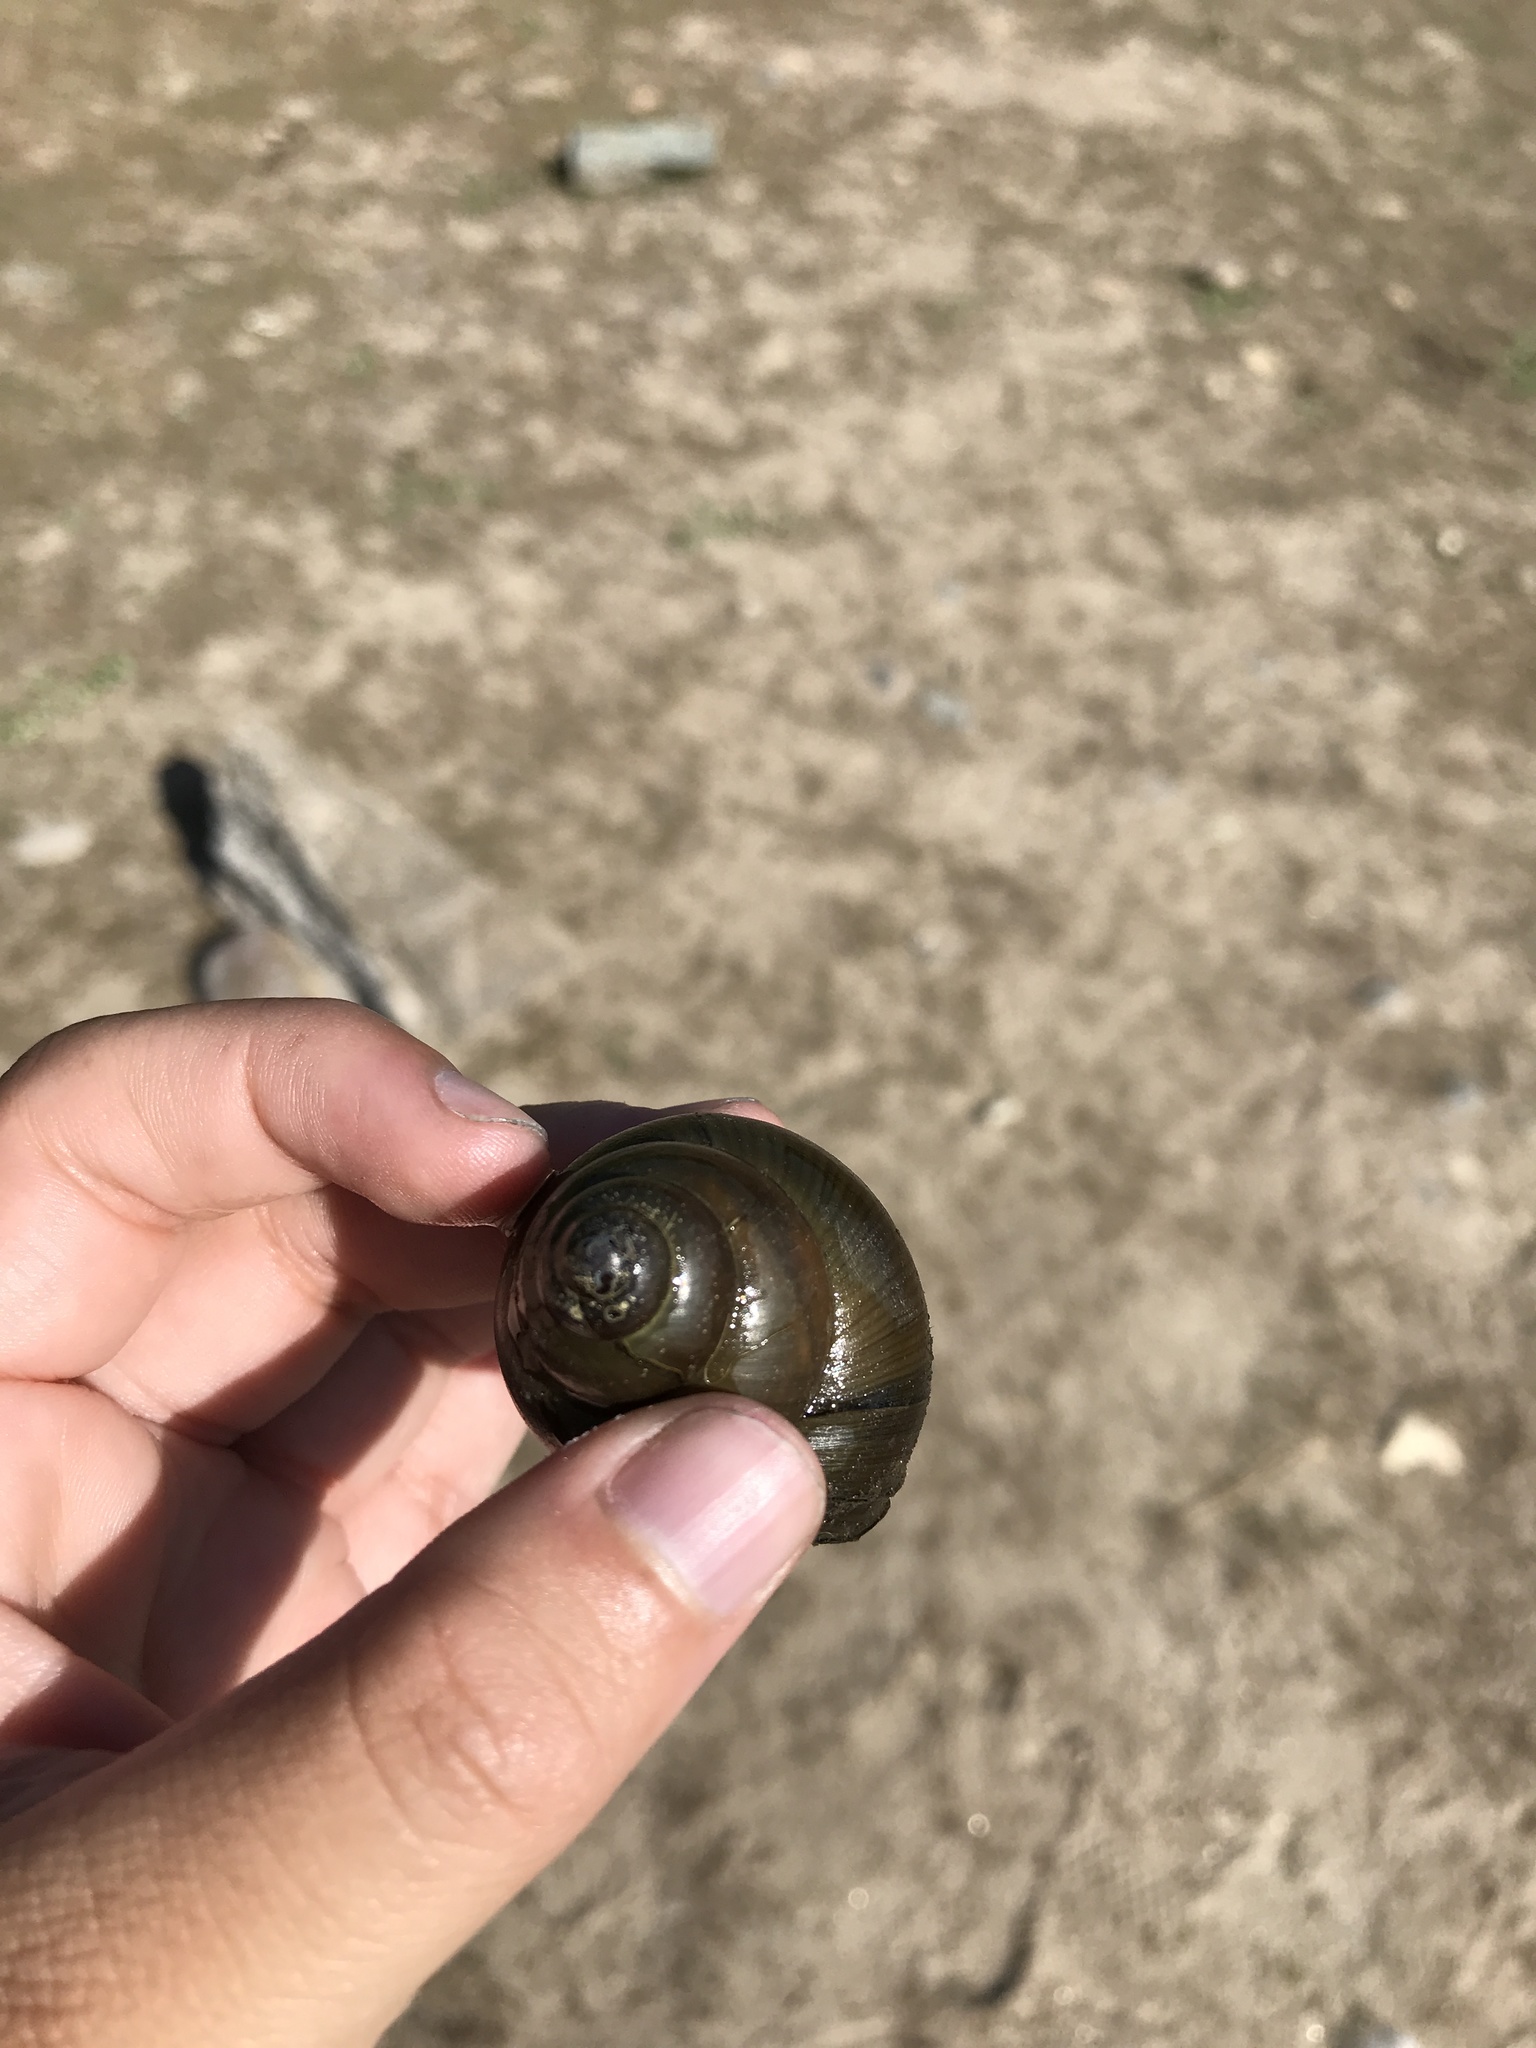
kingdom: Animalia
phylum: Mollusca
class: Gastropoda
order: Architaenioglossa
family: Viviparidae
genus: Cipangopaludina
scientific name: Cipangopaludina chinensis
